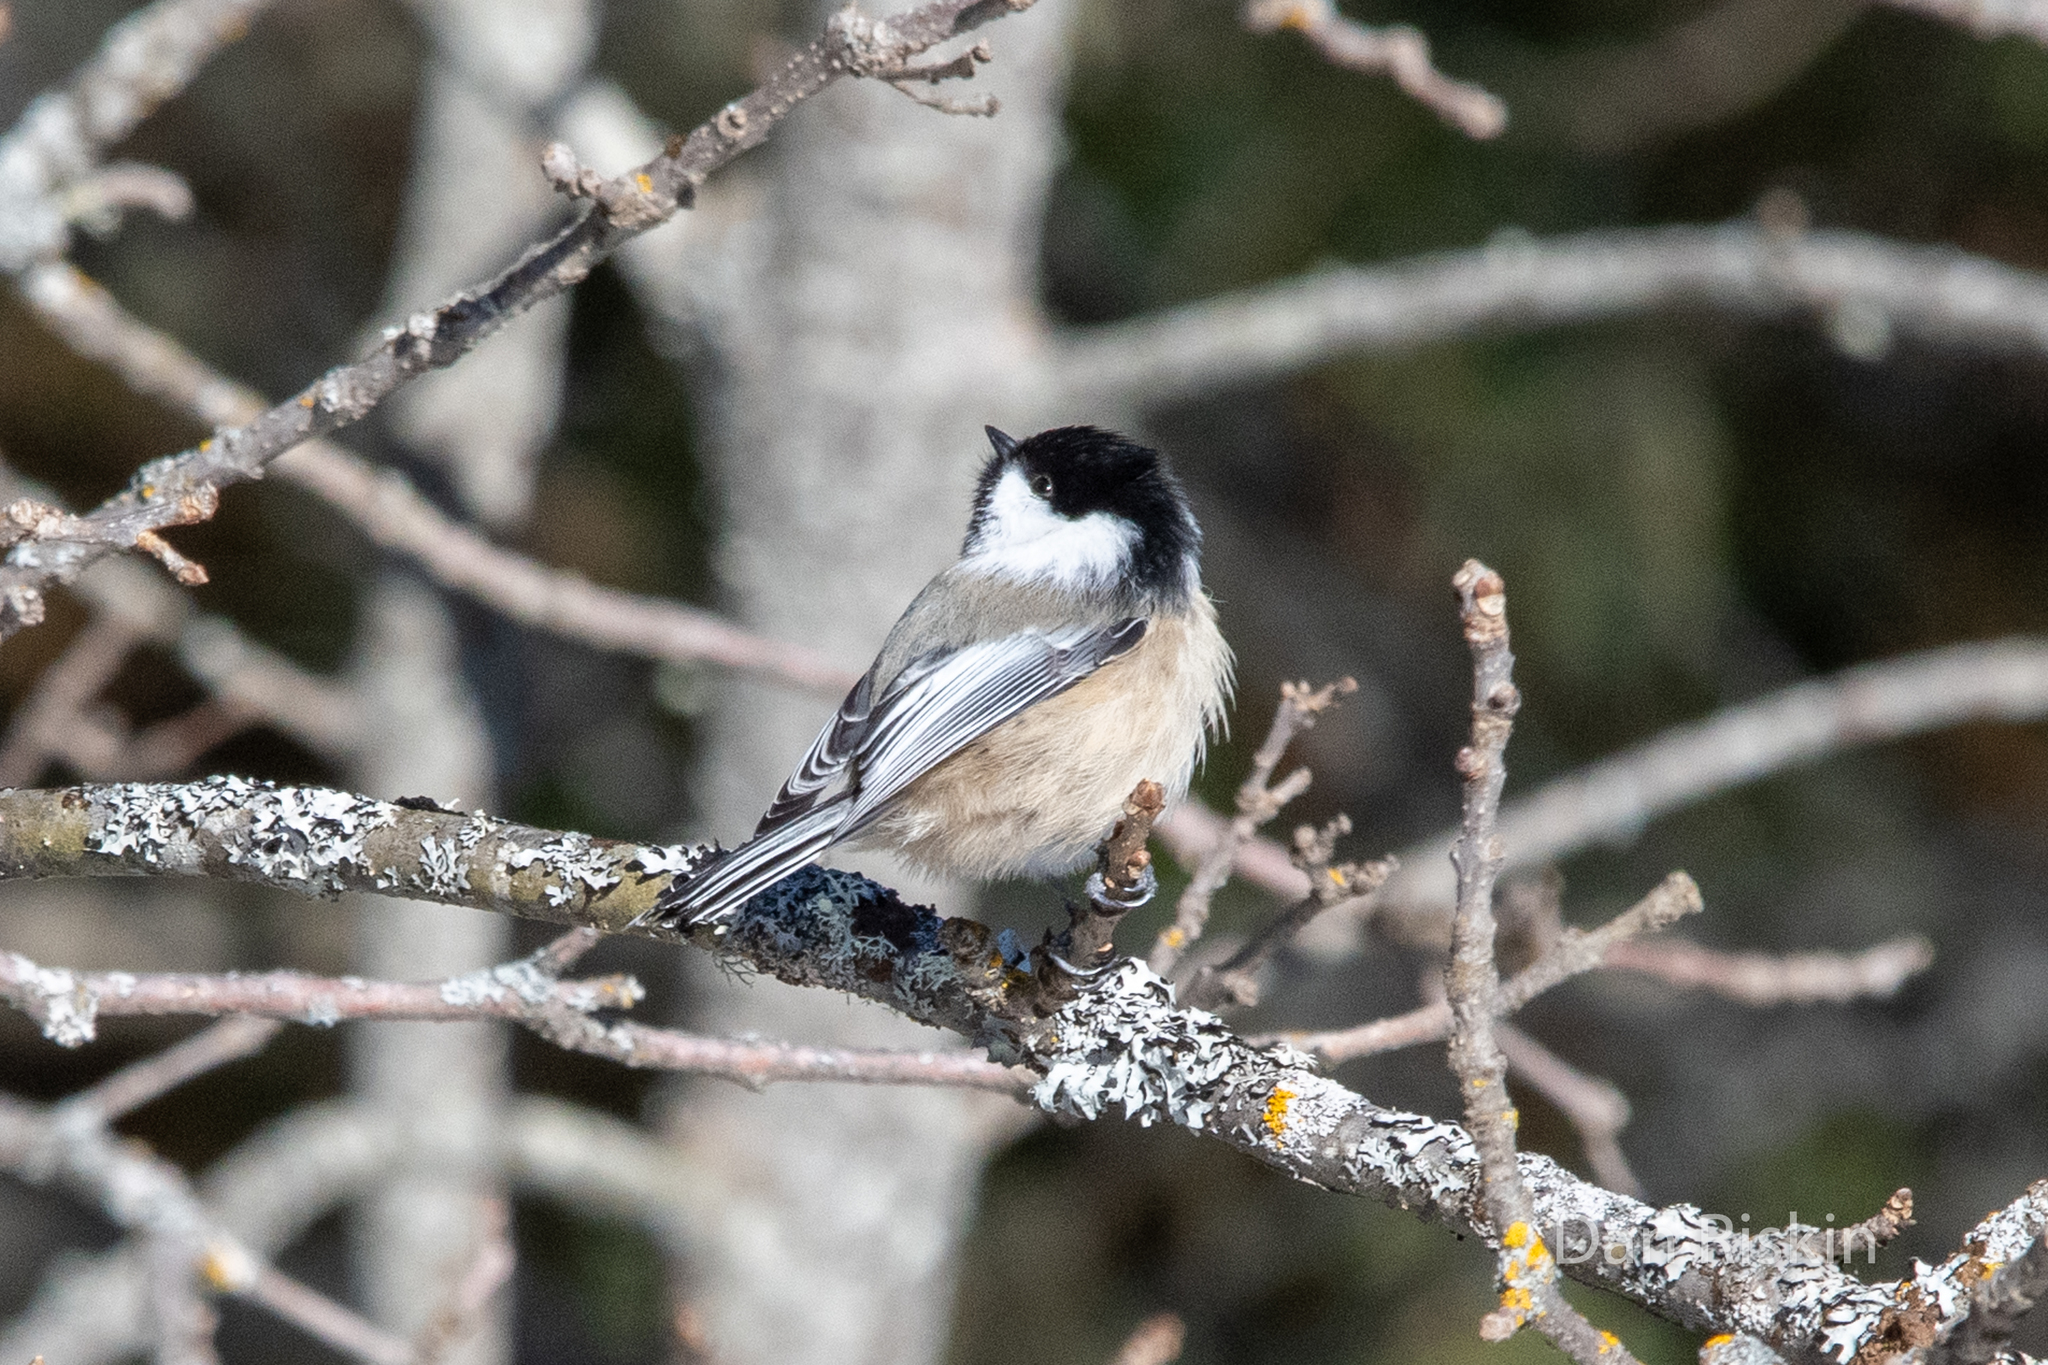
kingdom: Animalia
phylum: Chordata
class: Aves
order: Passeriformes
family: Paridae
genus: Poecile
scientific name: Poecile atricapillus
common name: Black-capped chickadee
